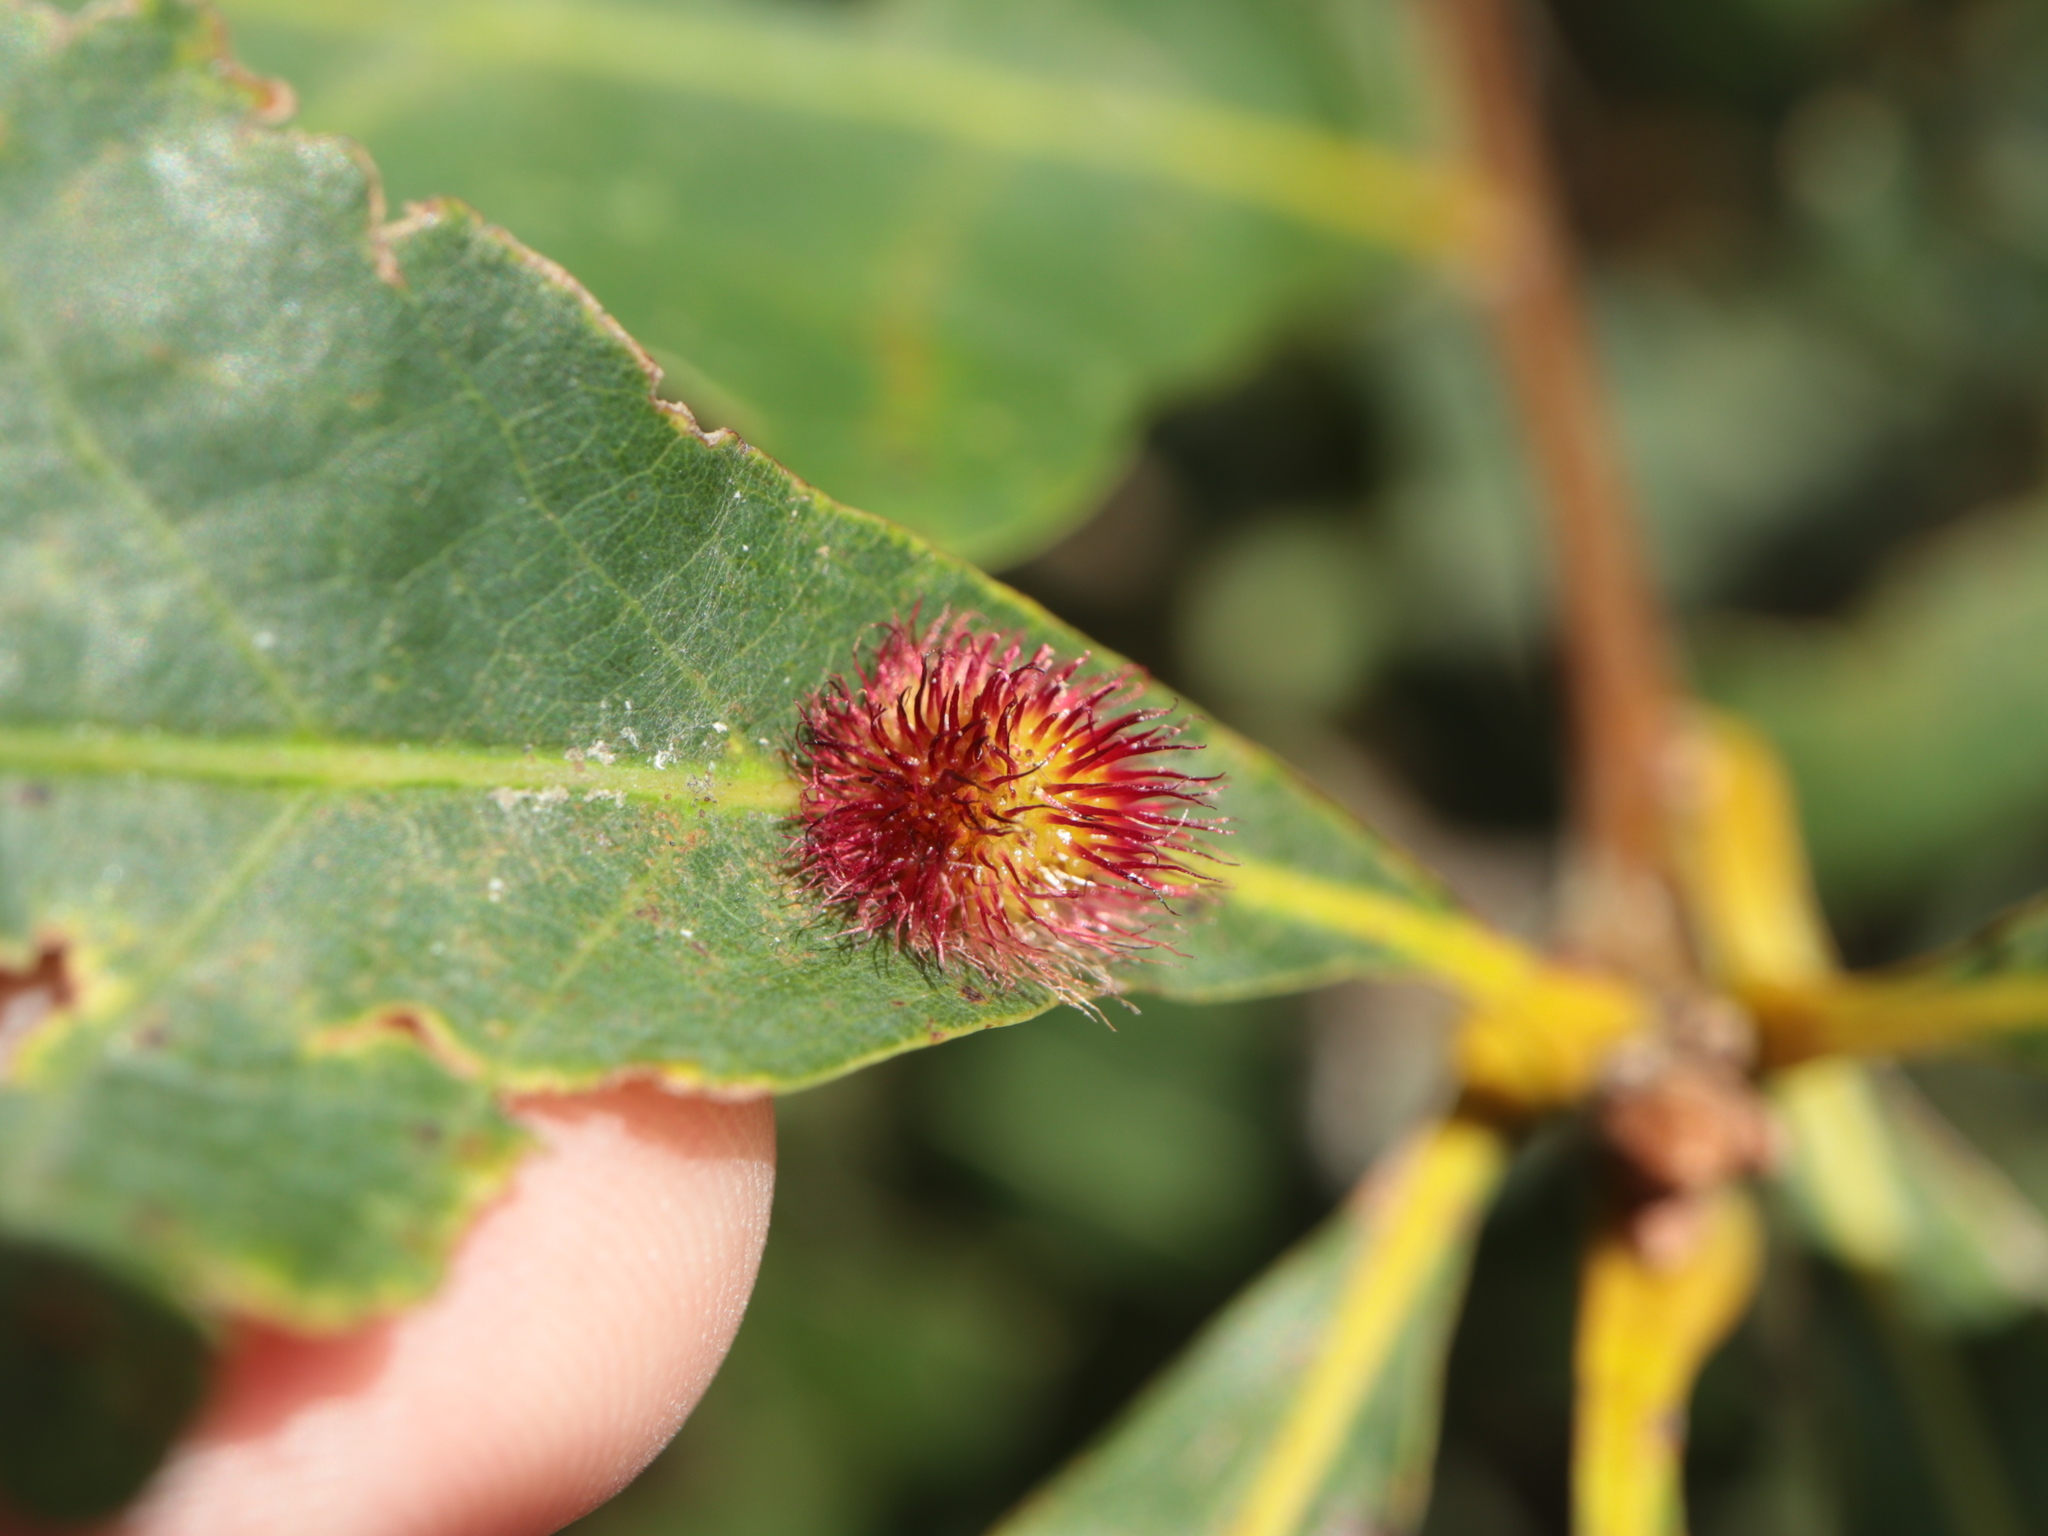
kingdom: Animalia
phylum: Arthropoda
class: Insecta
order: Hymenoptera
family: Cynipidae
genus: Acraspis
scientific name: Acraspis erinacei
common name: Hedgehog gall wasp
